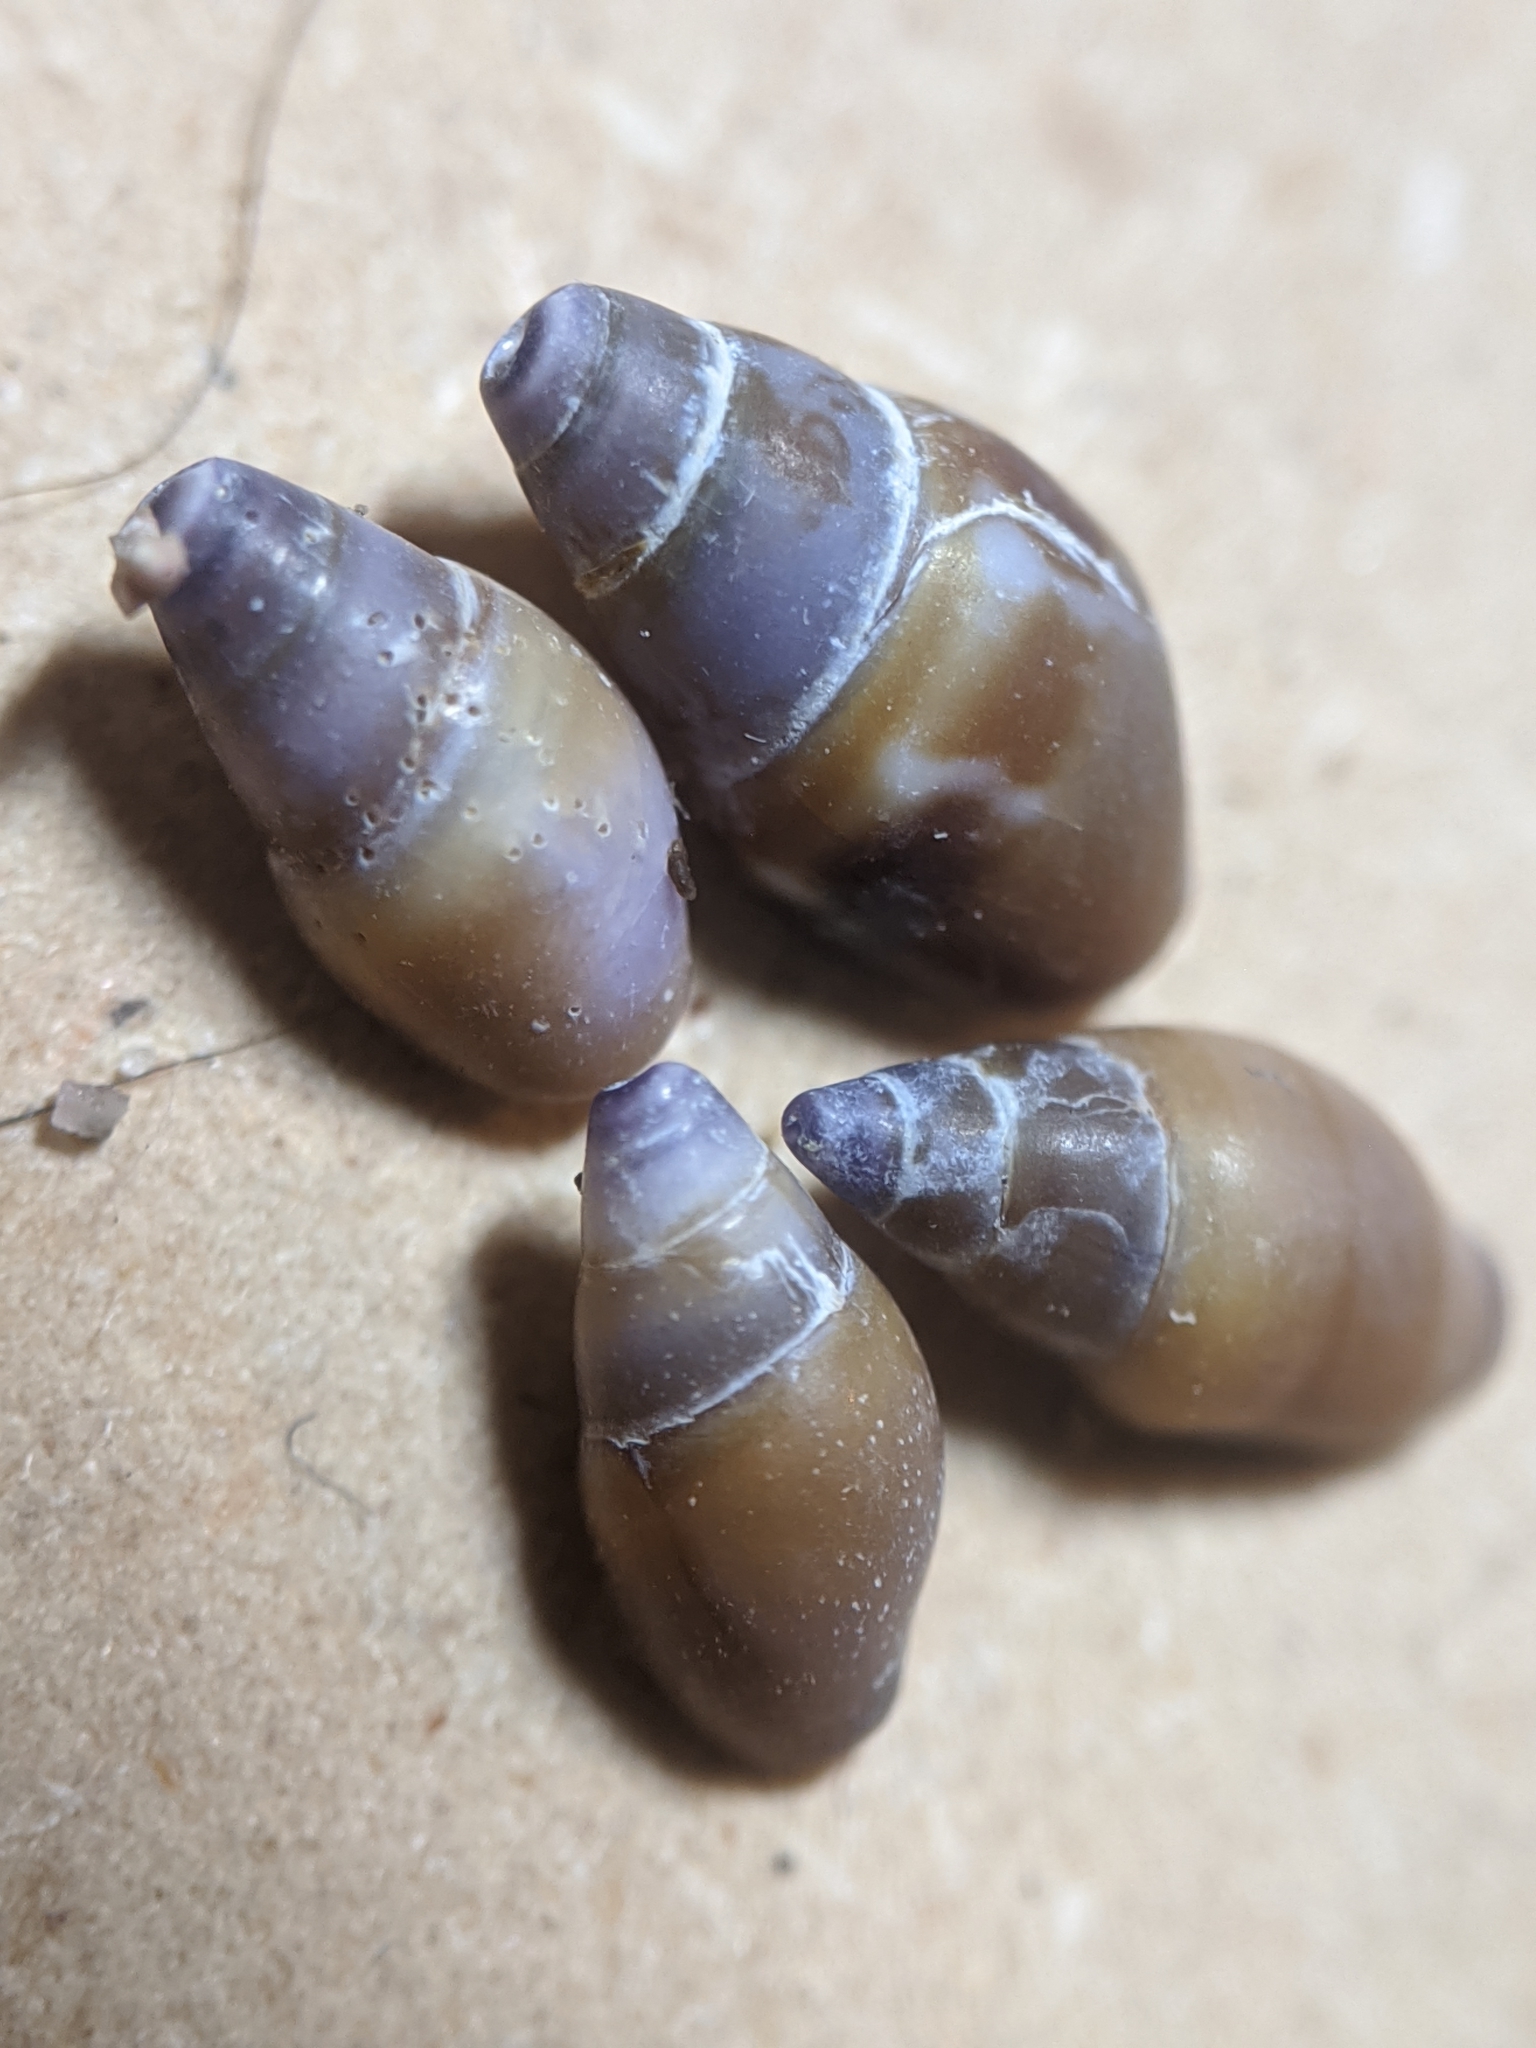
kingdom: Animalia
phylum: Mollusca
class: Gastropoda
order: Neogastropoda
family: Columbellidae
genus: Alia
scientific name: Alia carinata
